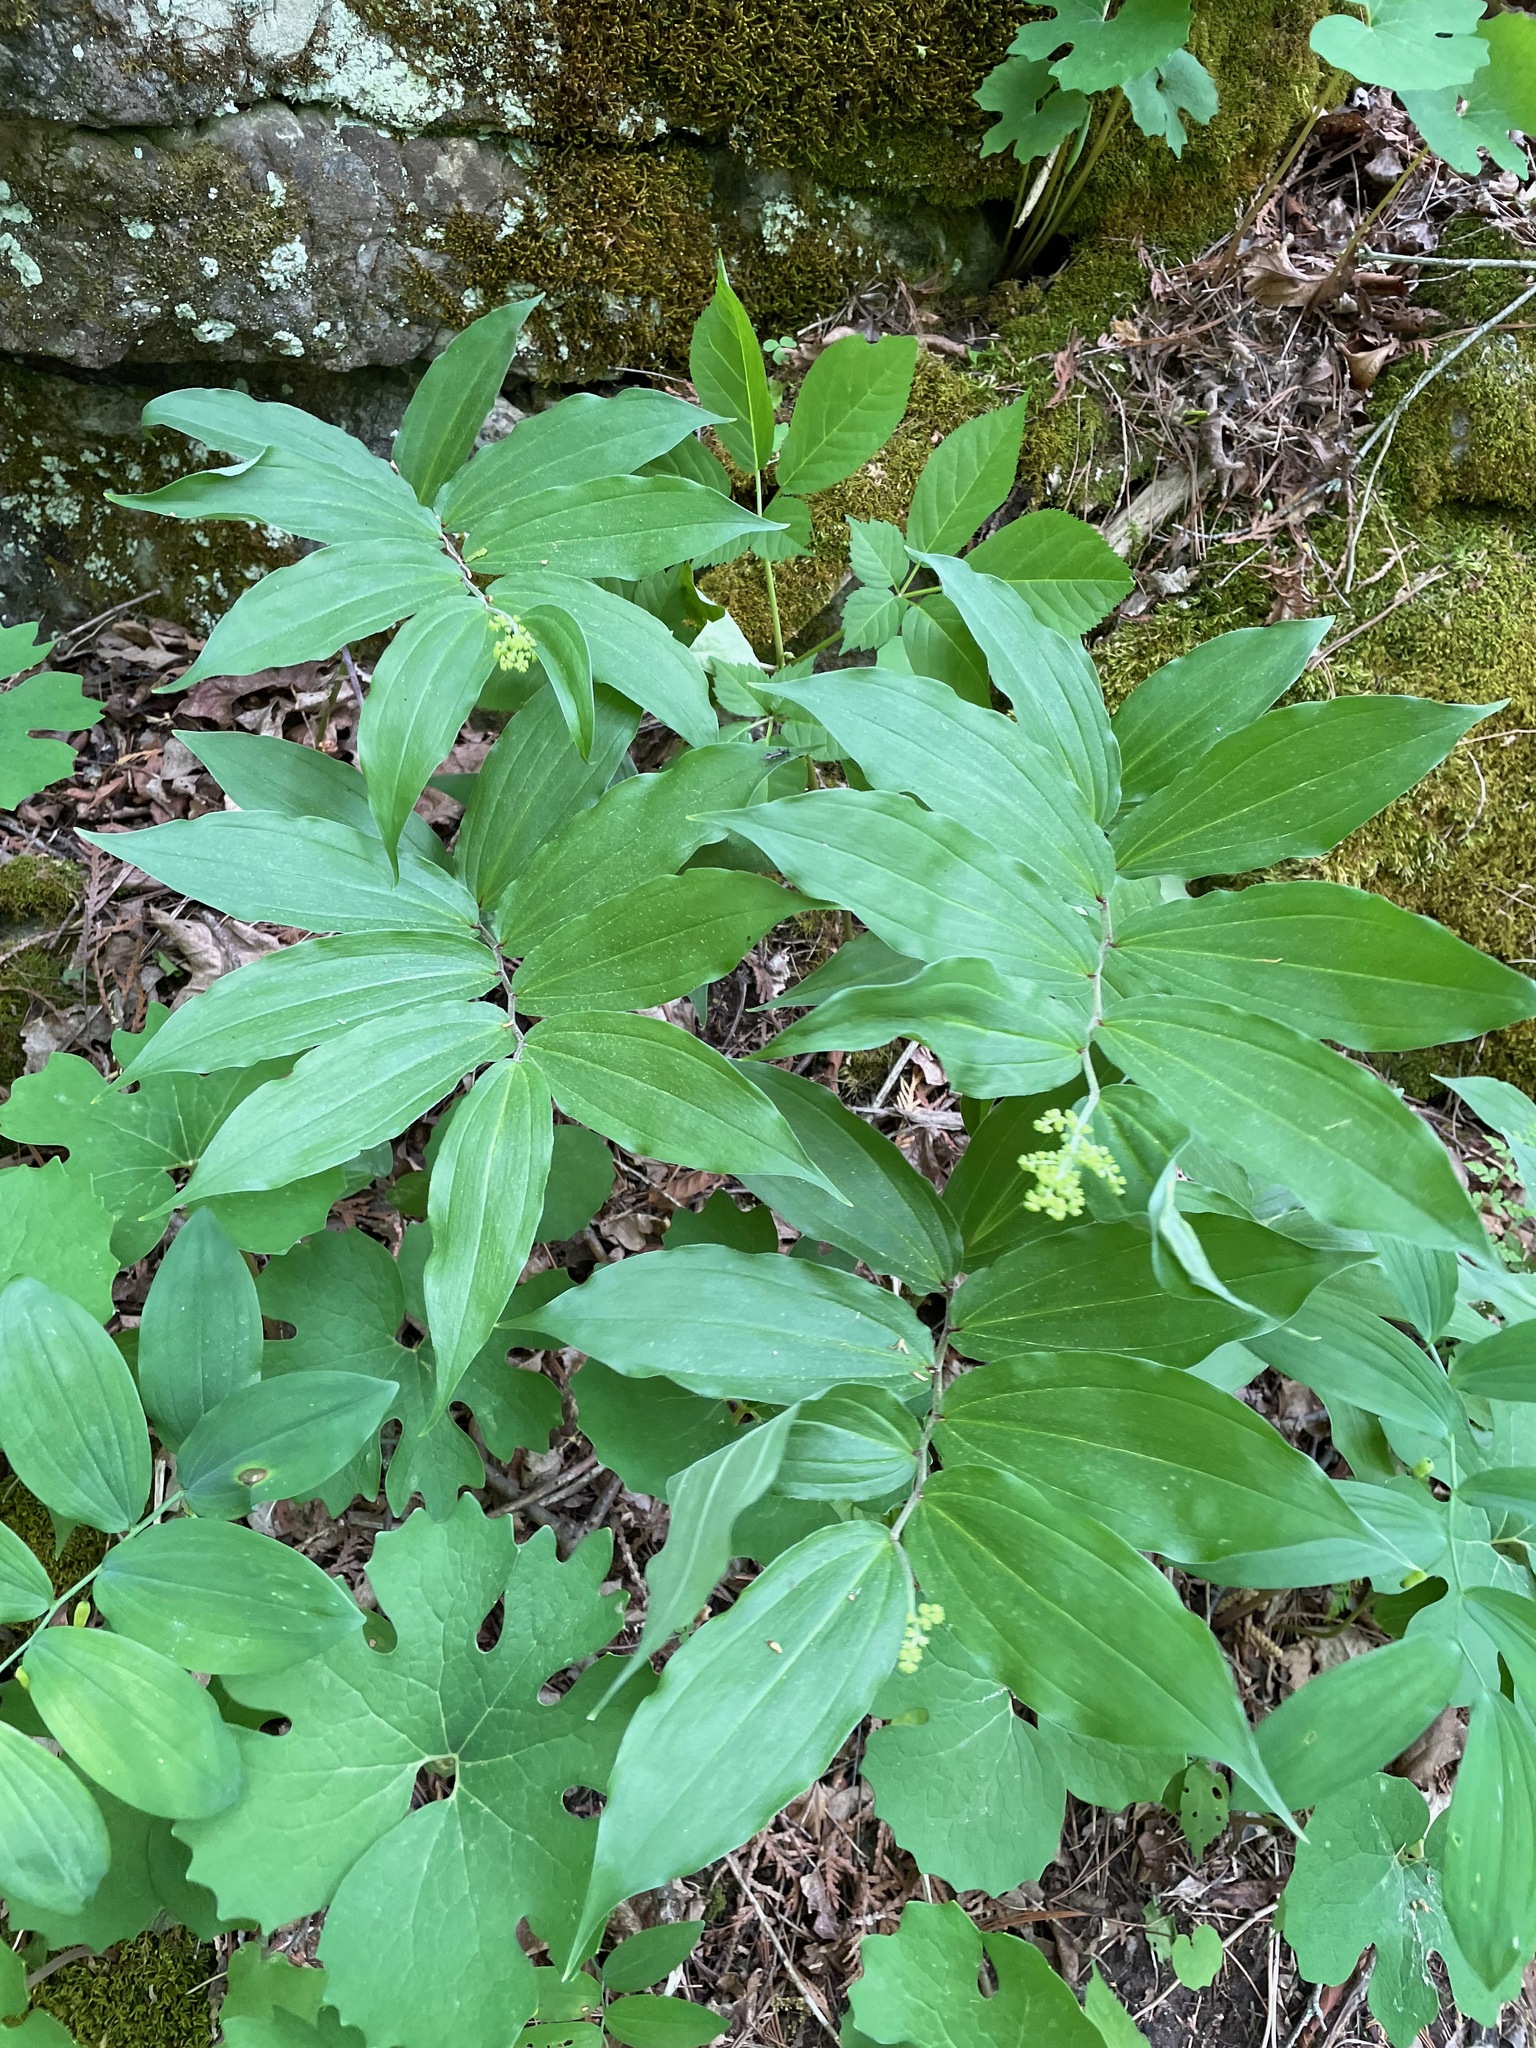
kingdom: Plantae
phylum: Tracheophyta
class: Liliopsida
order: Asparagales
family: Asparagaceae
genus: Maianthemum
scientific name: Maianthemum racemosum
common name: False spikenard
